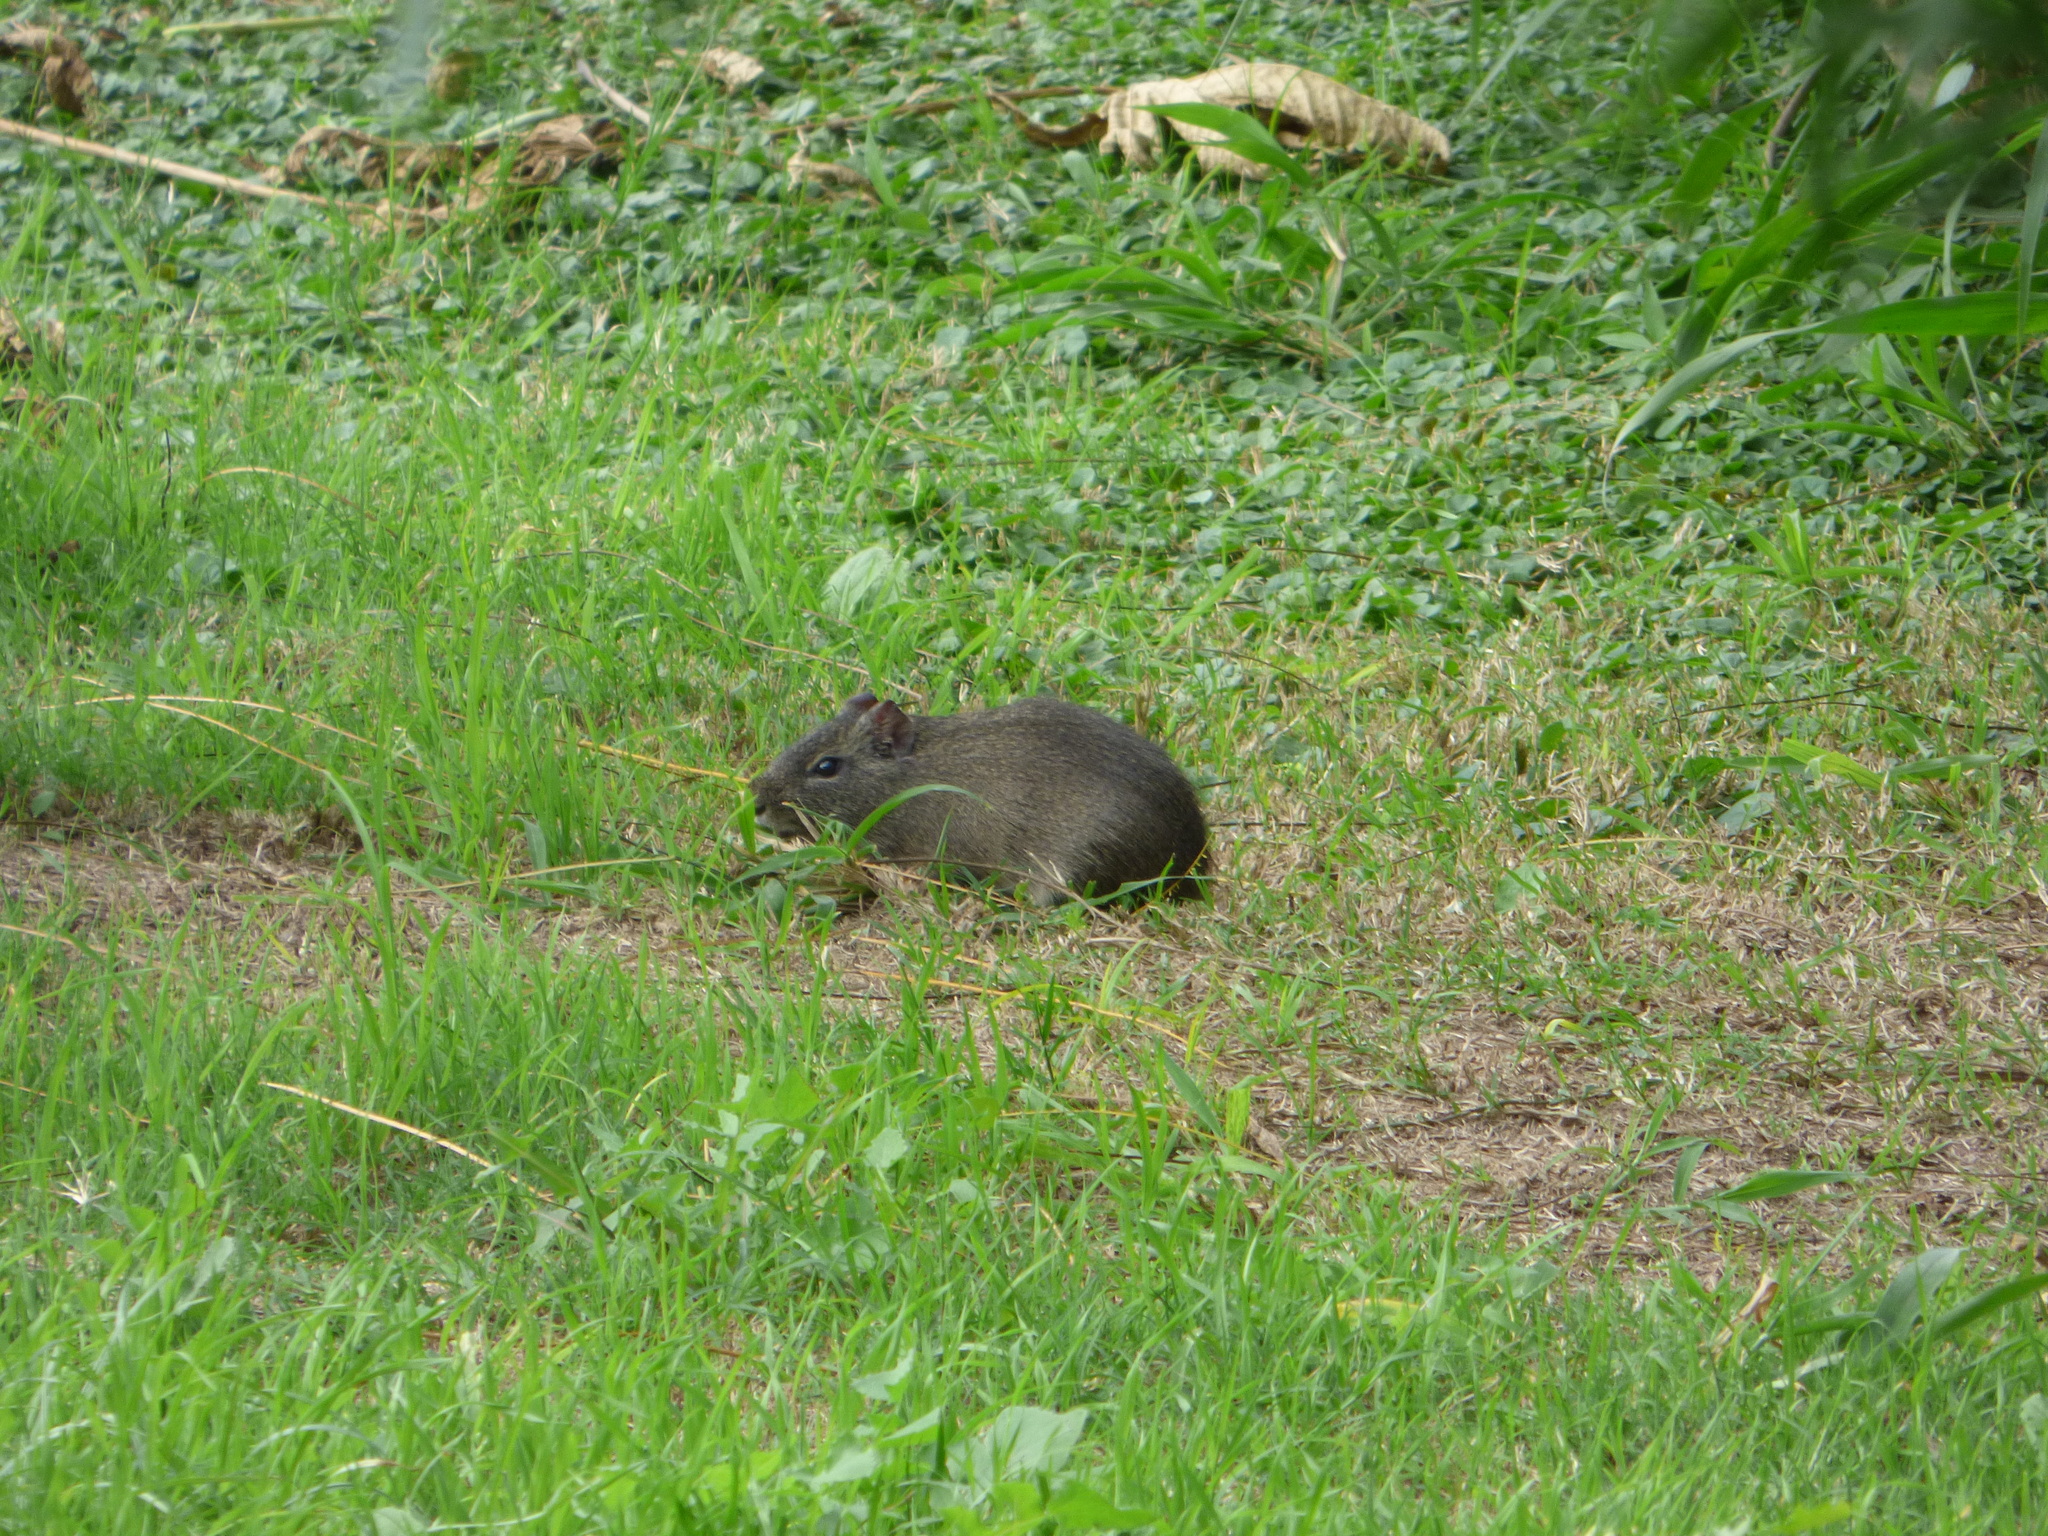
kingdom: Animalia
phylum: Chordata
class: Mammalia
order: Rodentia
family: Caviidae
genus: Cavia
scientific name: Cavia aperea
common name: Brazilian guinea pig
